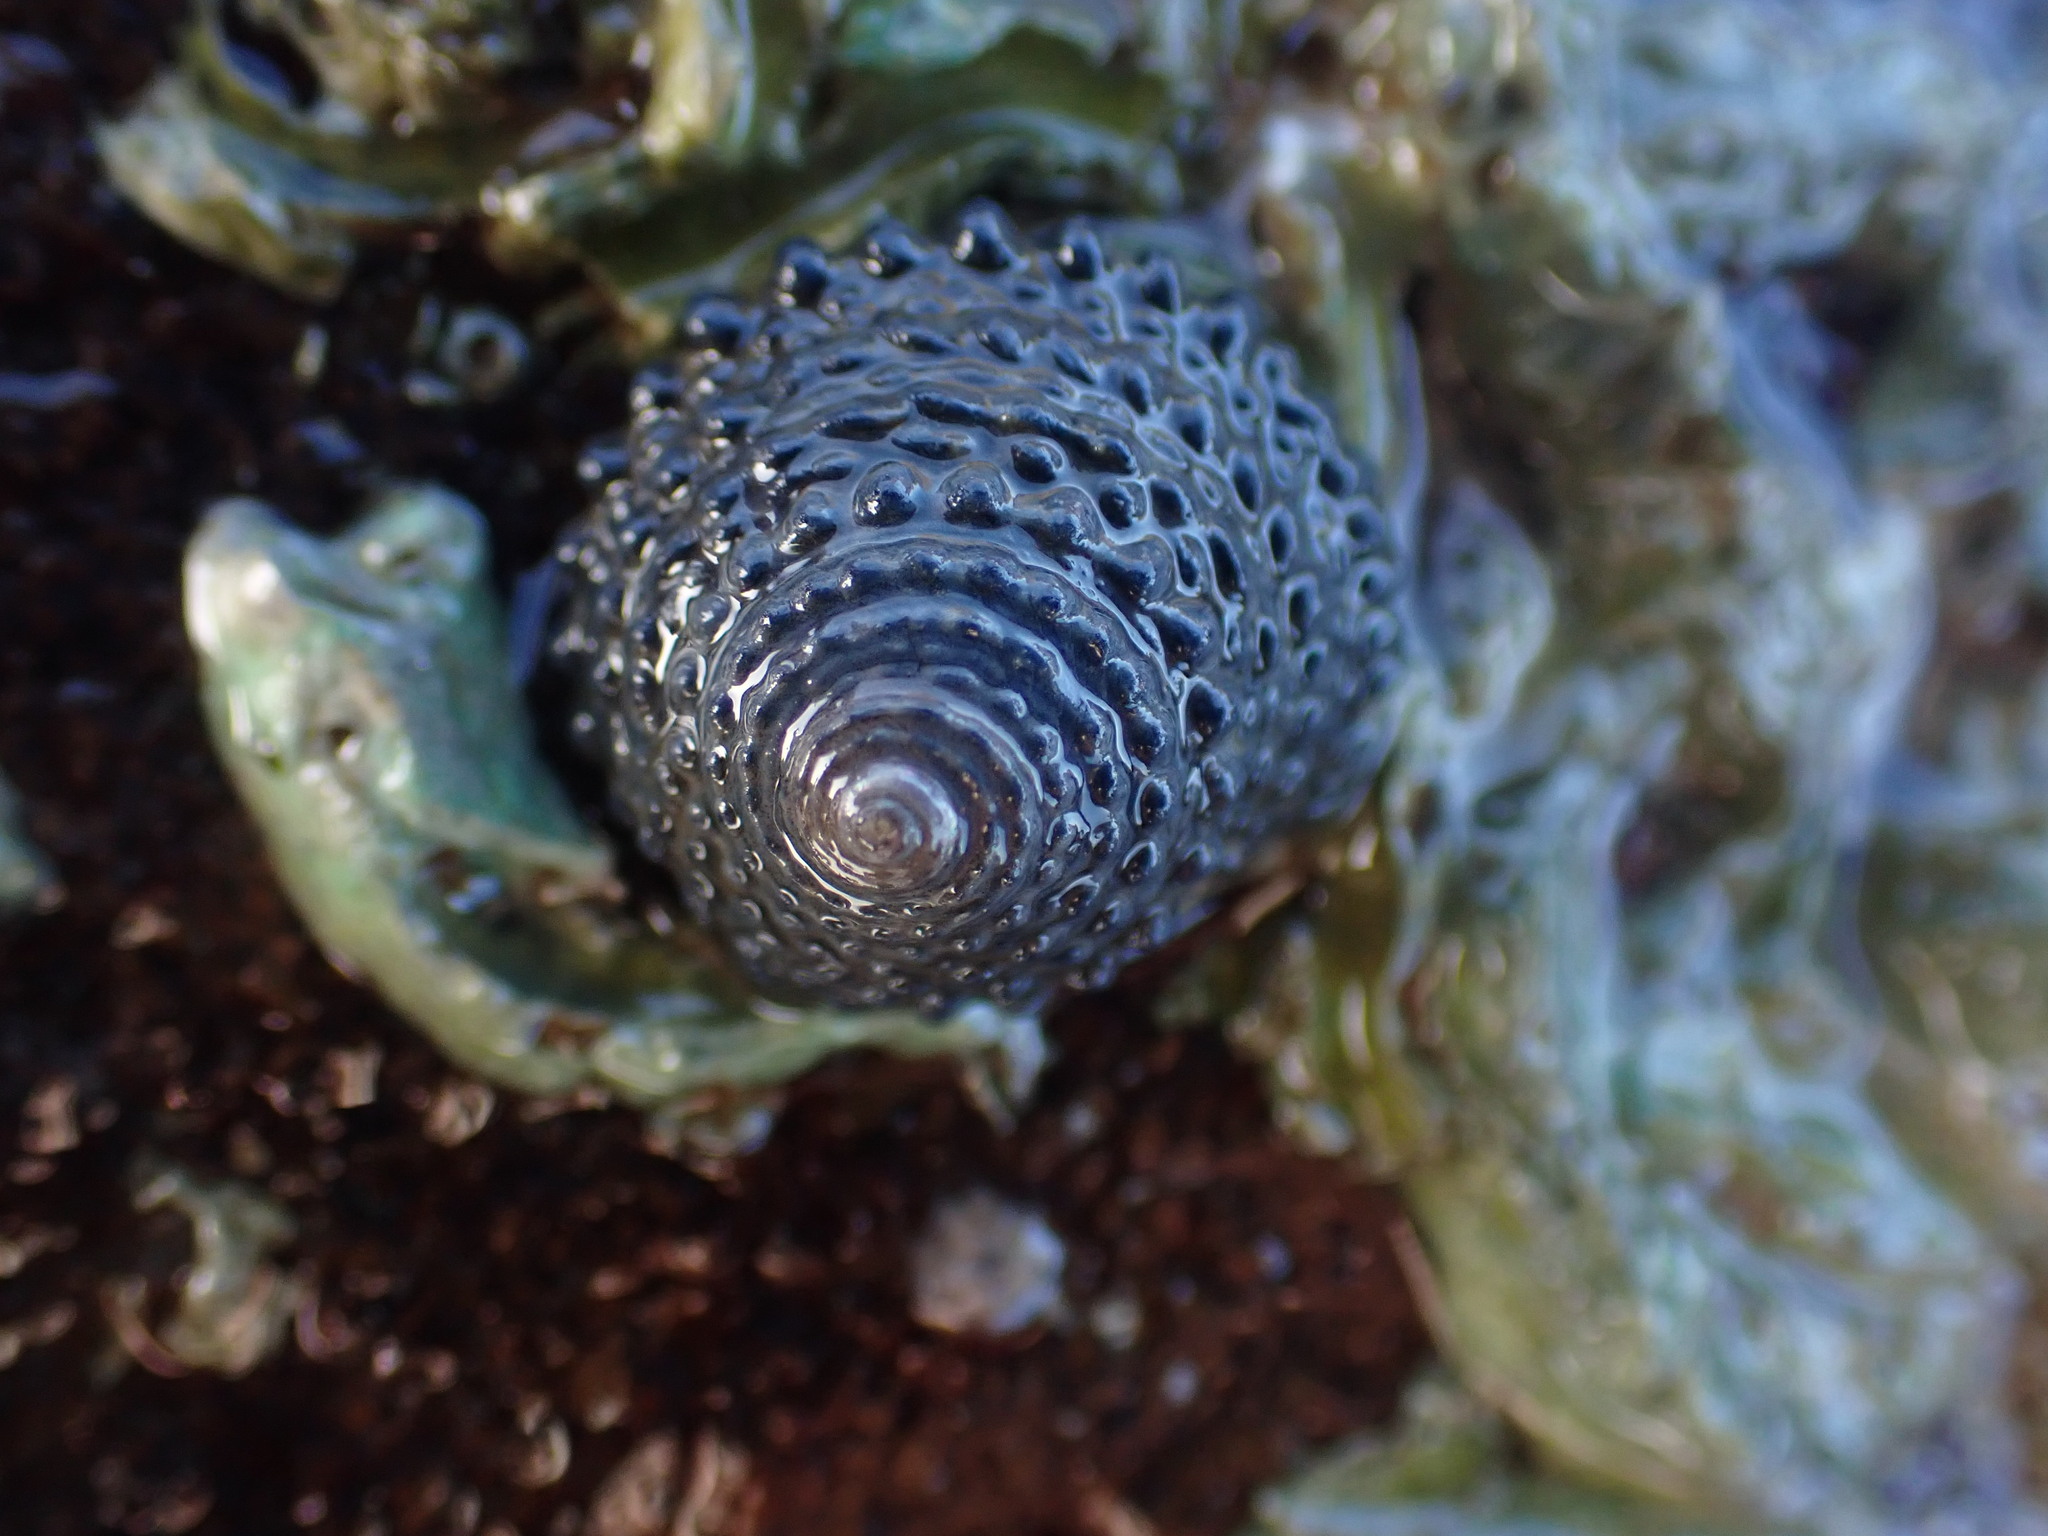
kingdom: Animalia
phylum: Mollusca
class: Gastropoda
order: Trochida
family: Trochidae
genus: Diloma
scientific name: Diloma bicanaliculatum
